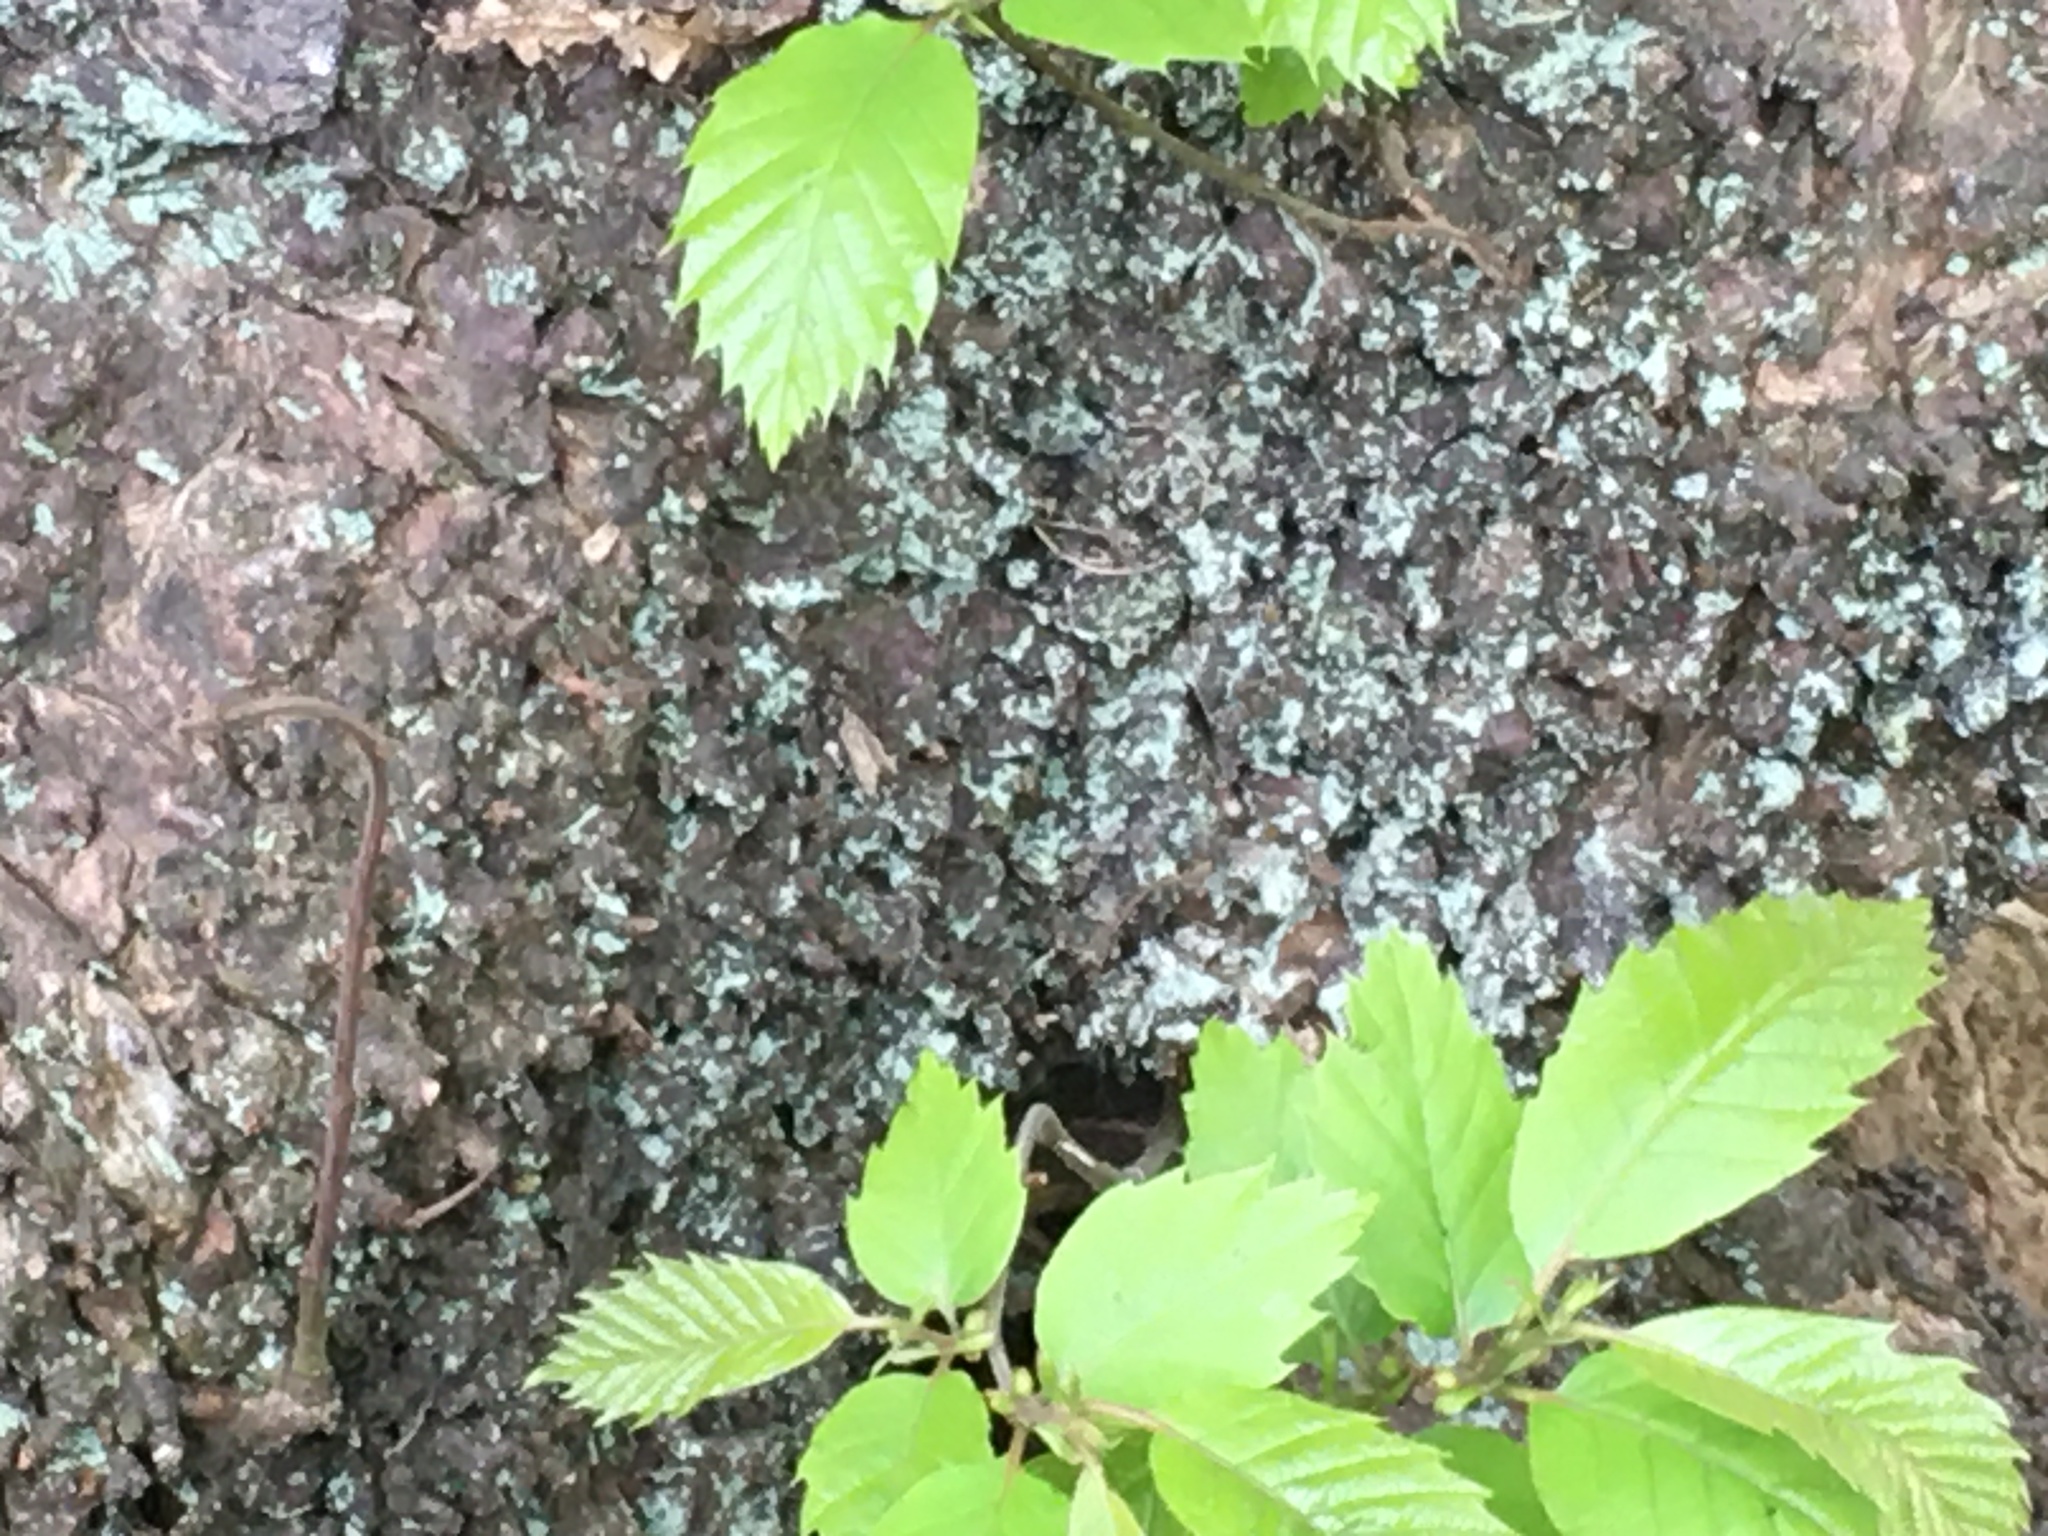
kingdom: Plantae
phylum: Tracheophyta
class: Magnoliopsida
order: Fagales
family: Fagaceae
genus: Castanea
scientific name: Castanea sativa
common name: Sweet chestnut
